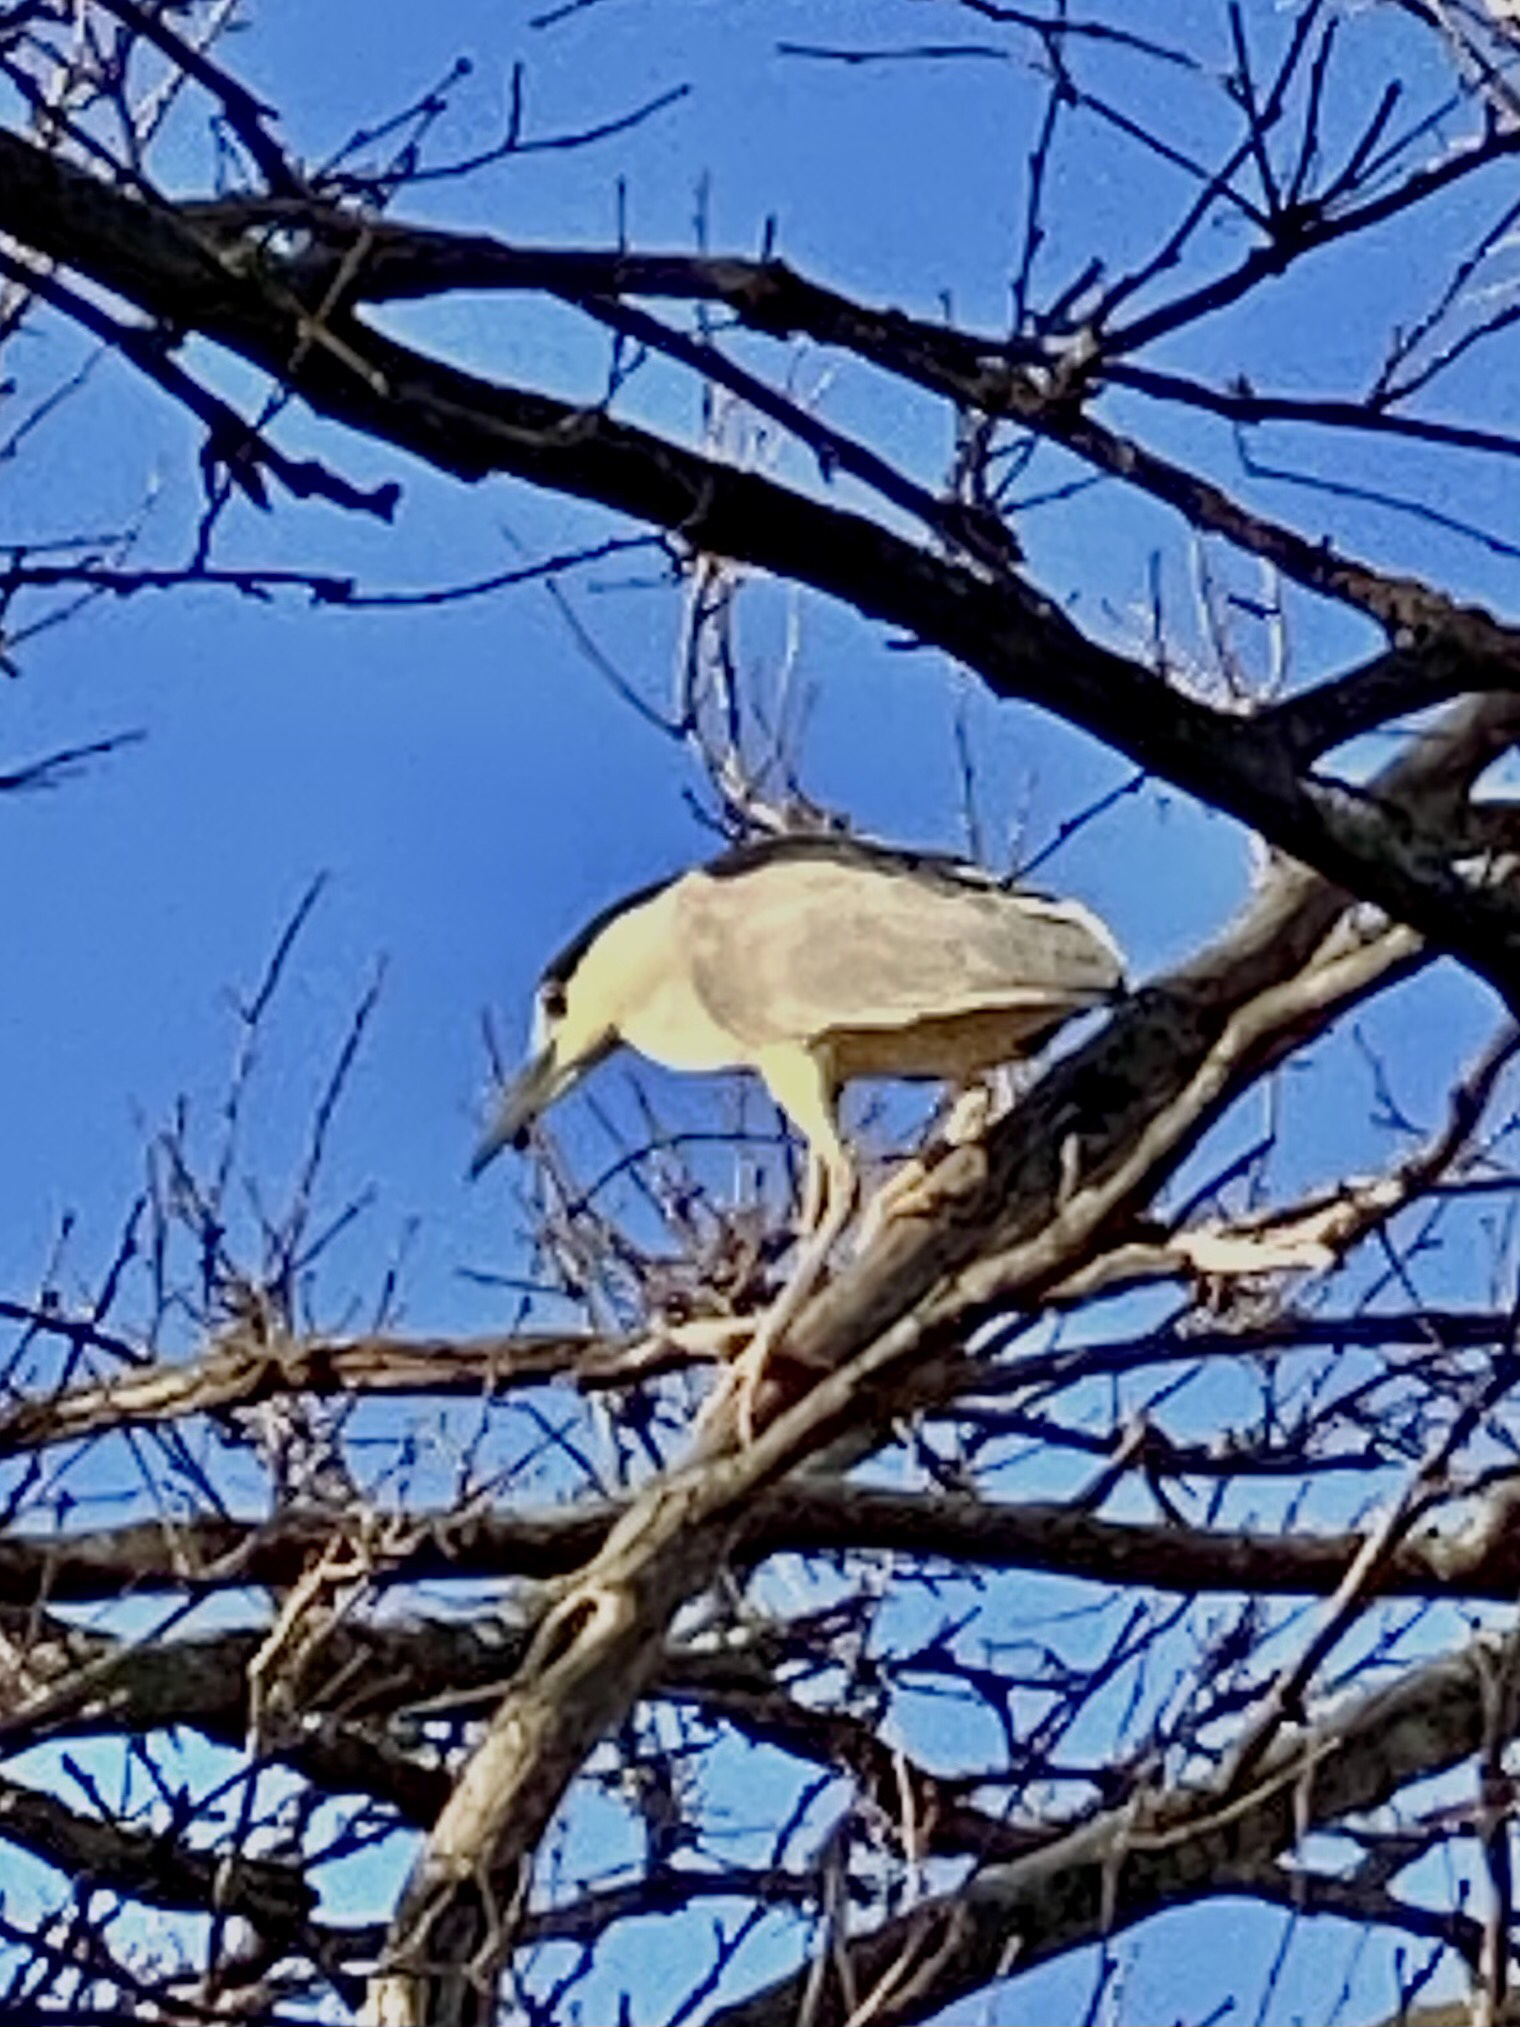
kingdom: Animalia
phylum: Chordata
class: Aves
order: Pelecaniformes
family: Ardeidae
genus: Nycticorax
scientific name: Nycticorax nycticorax
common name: Black-crowned night heron
